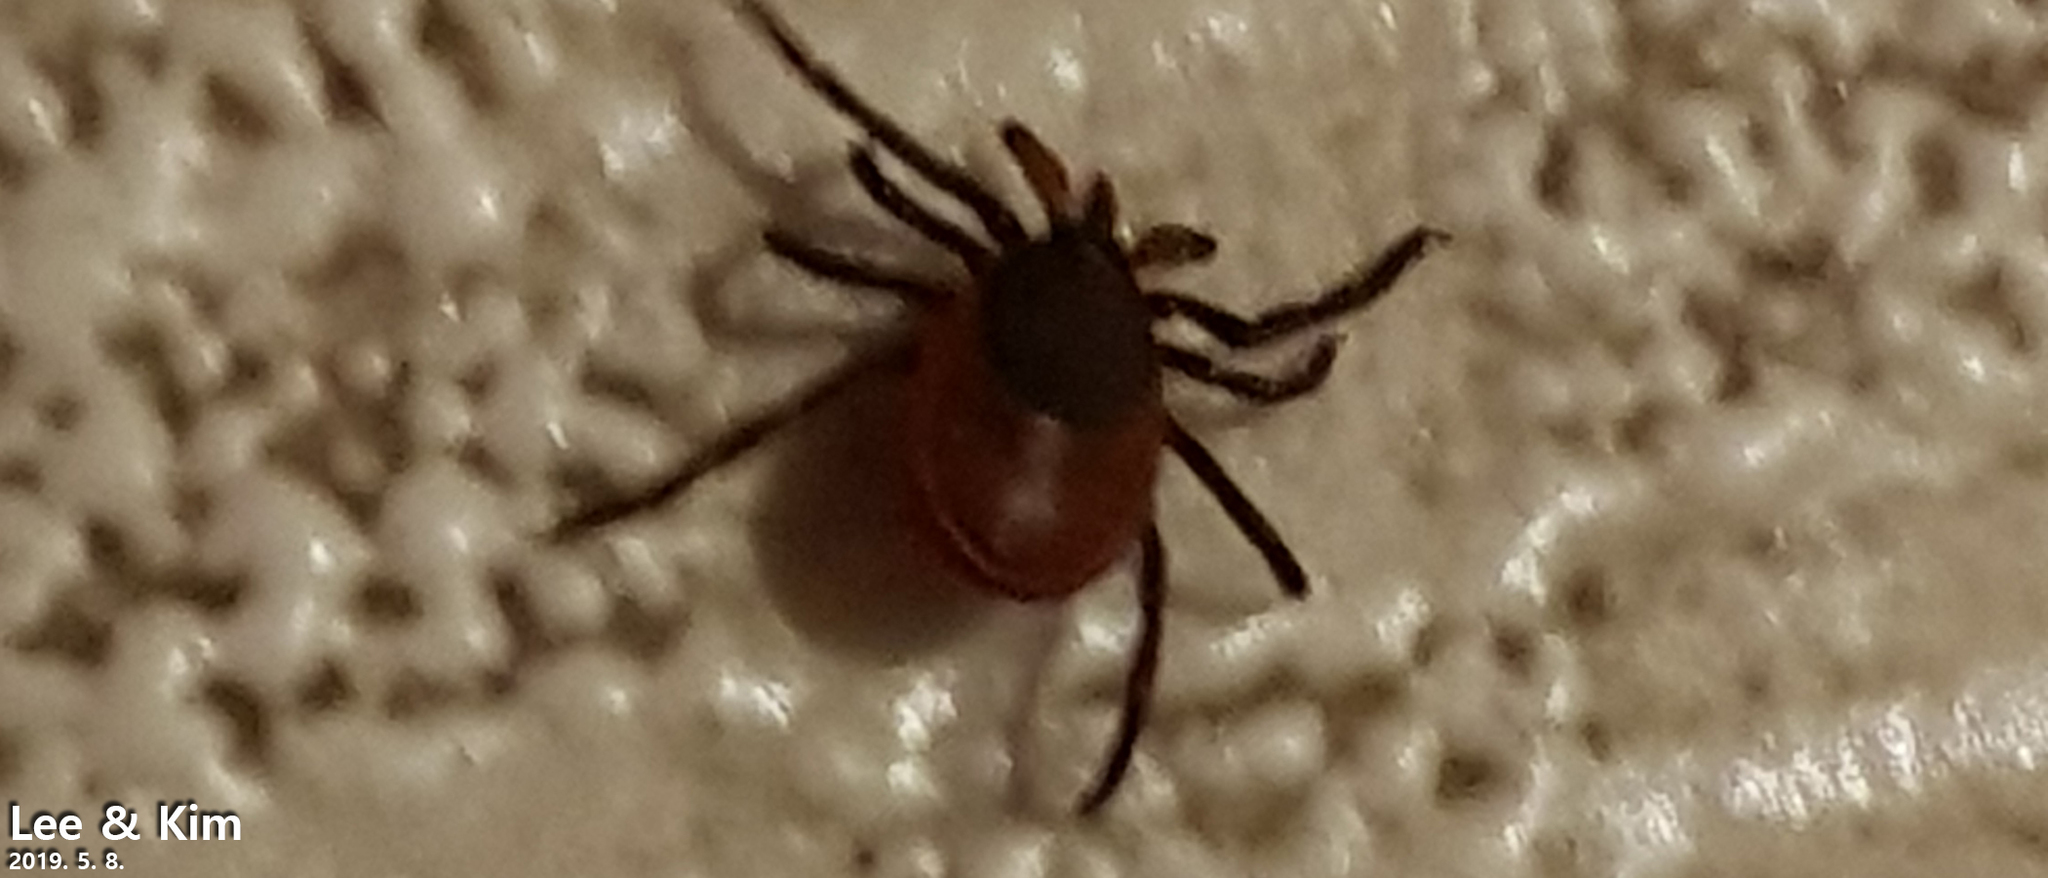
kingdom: Animalia
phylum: Arthropoda
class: Arachnida
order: Ixodida
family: Ixodidae
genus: Ixodes
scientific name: Ixodes nipponensis
